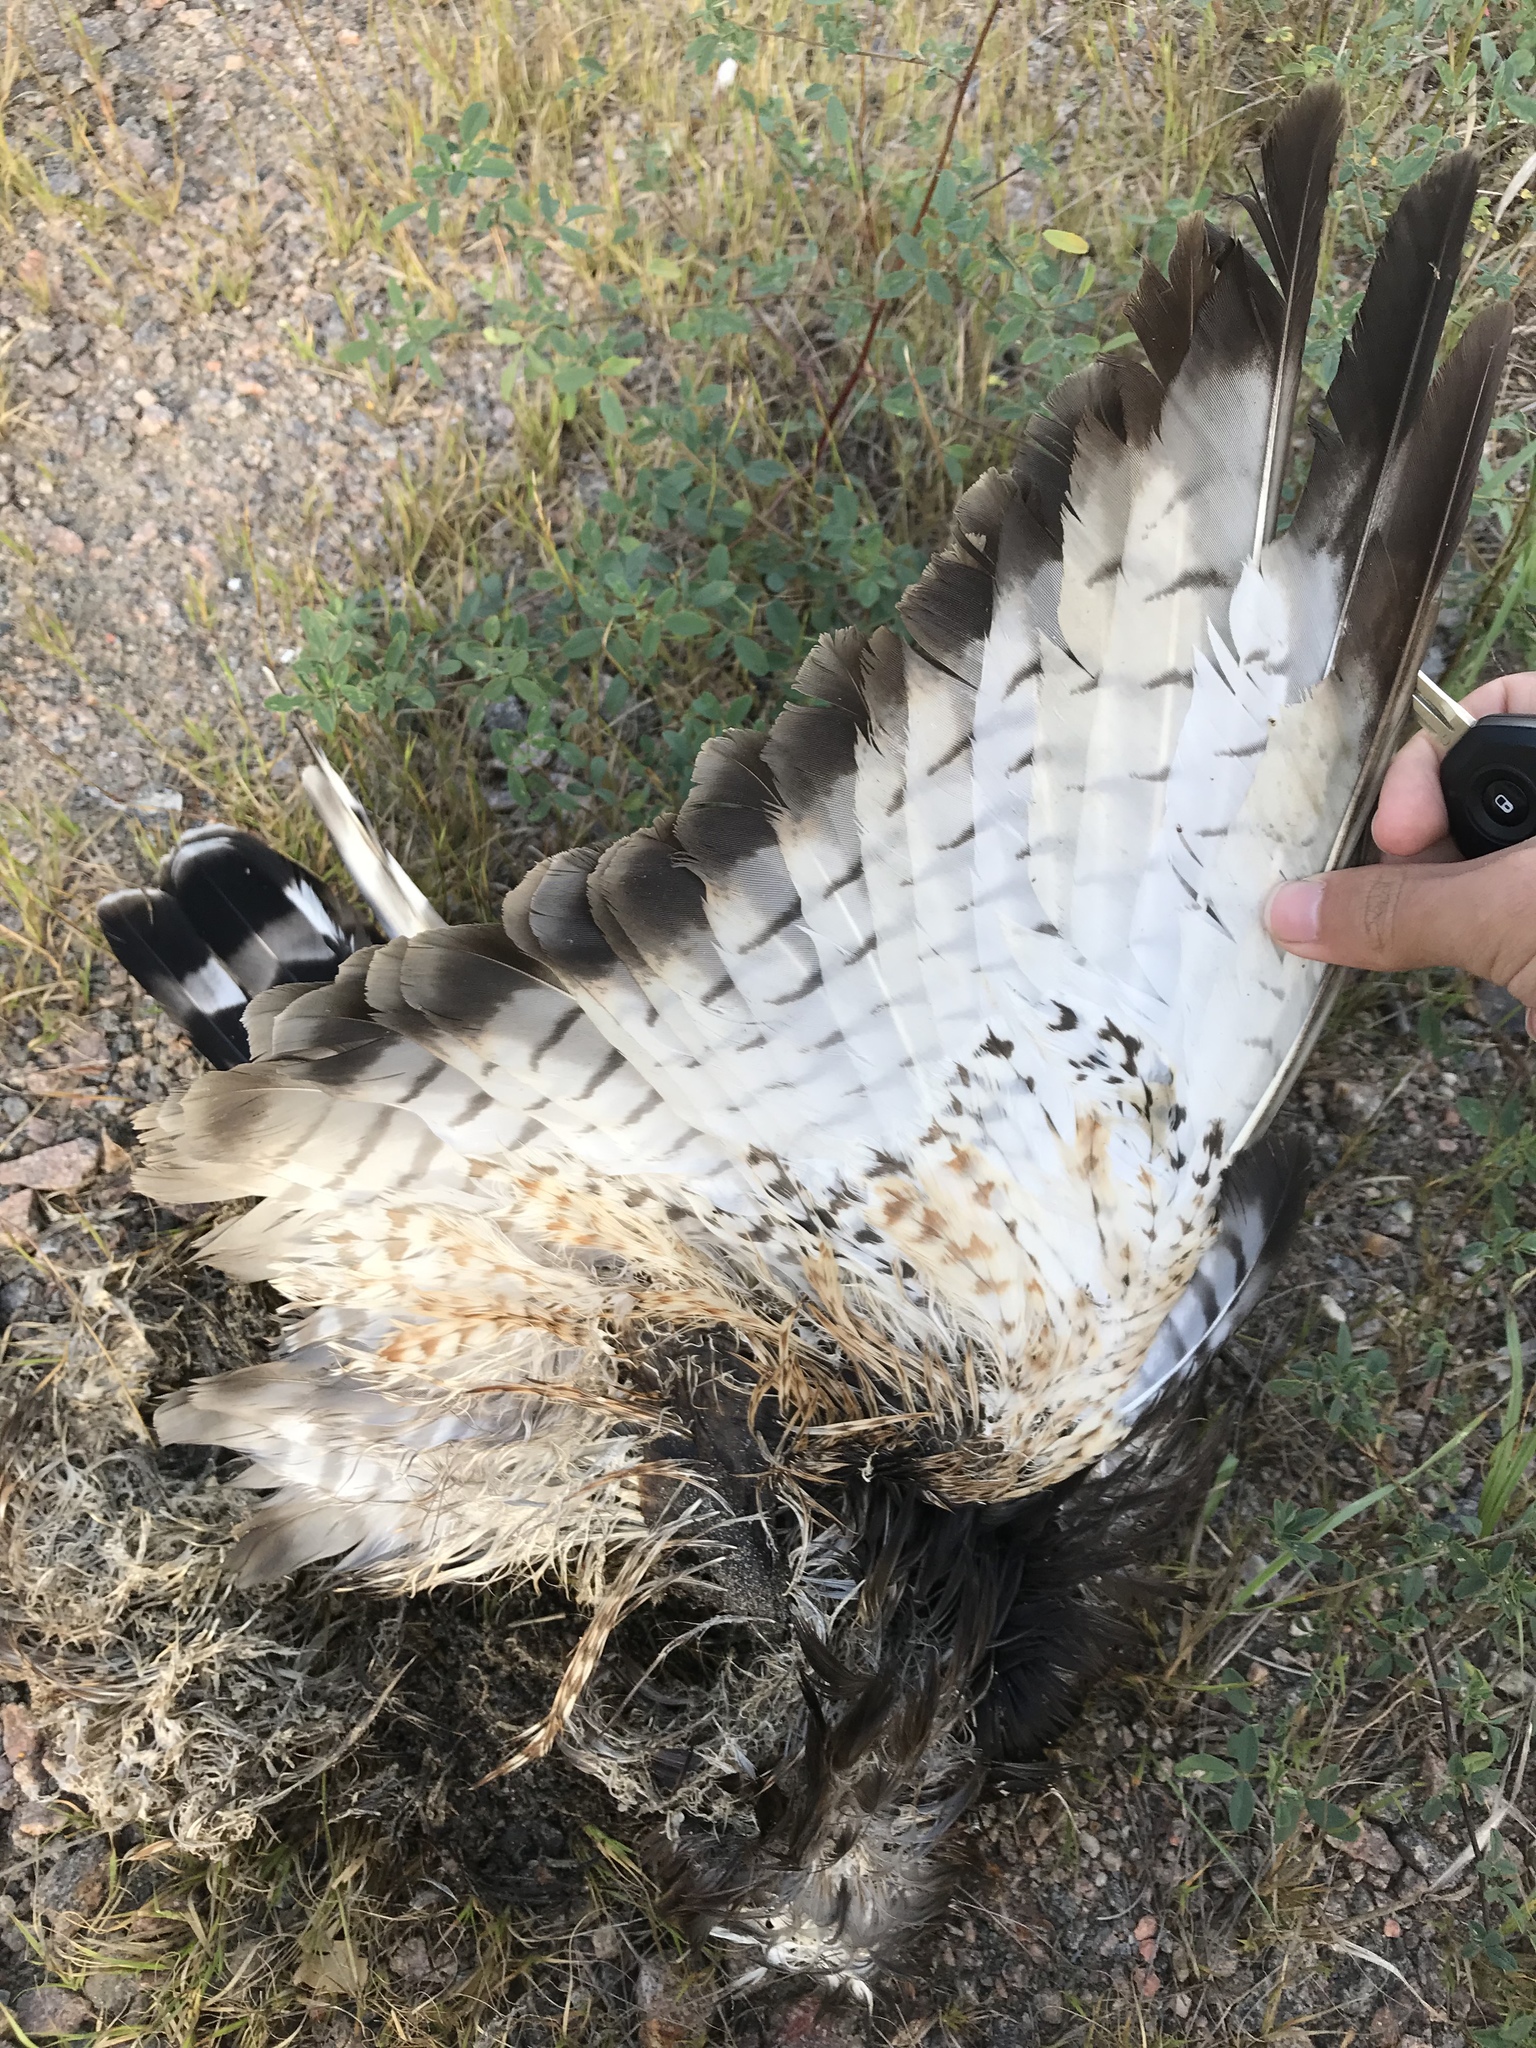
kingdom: Animalia
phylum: Chordata
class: Aves
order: Accipitriformes
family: Accipitridae
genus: Buteo
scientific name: Buteo platypterus
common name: Broad-winged hawk
